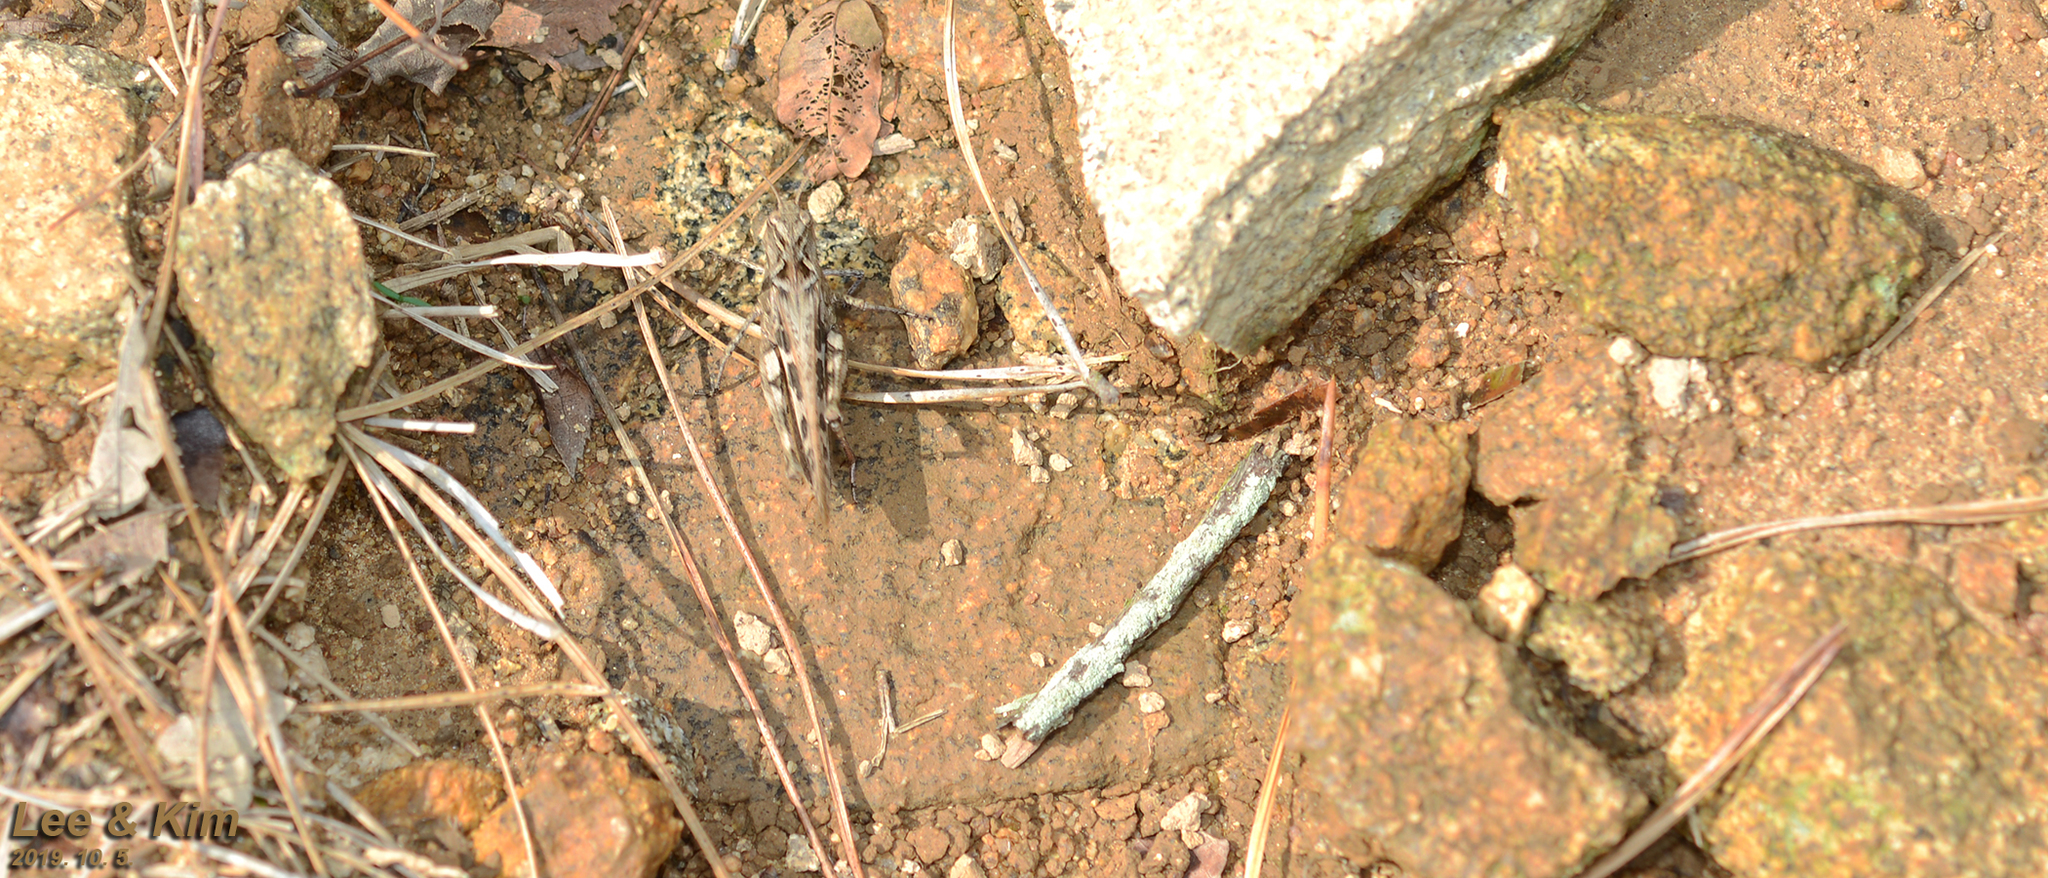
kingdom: Animalia
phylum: Arthropoda
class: Insecta
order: Orthoptera
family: Acrididae
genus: Oedaleus
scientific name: Oedaleus infernalis
